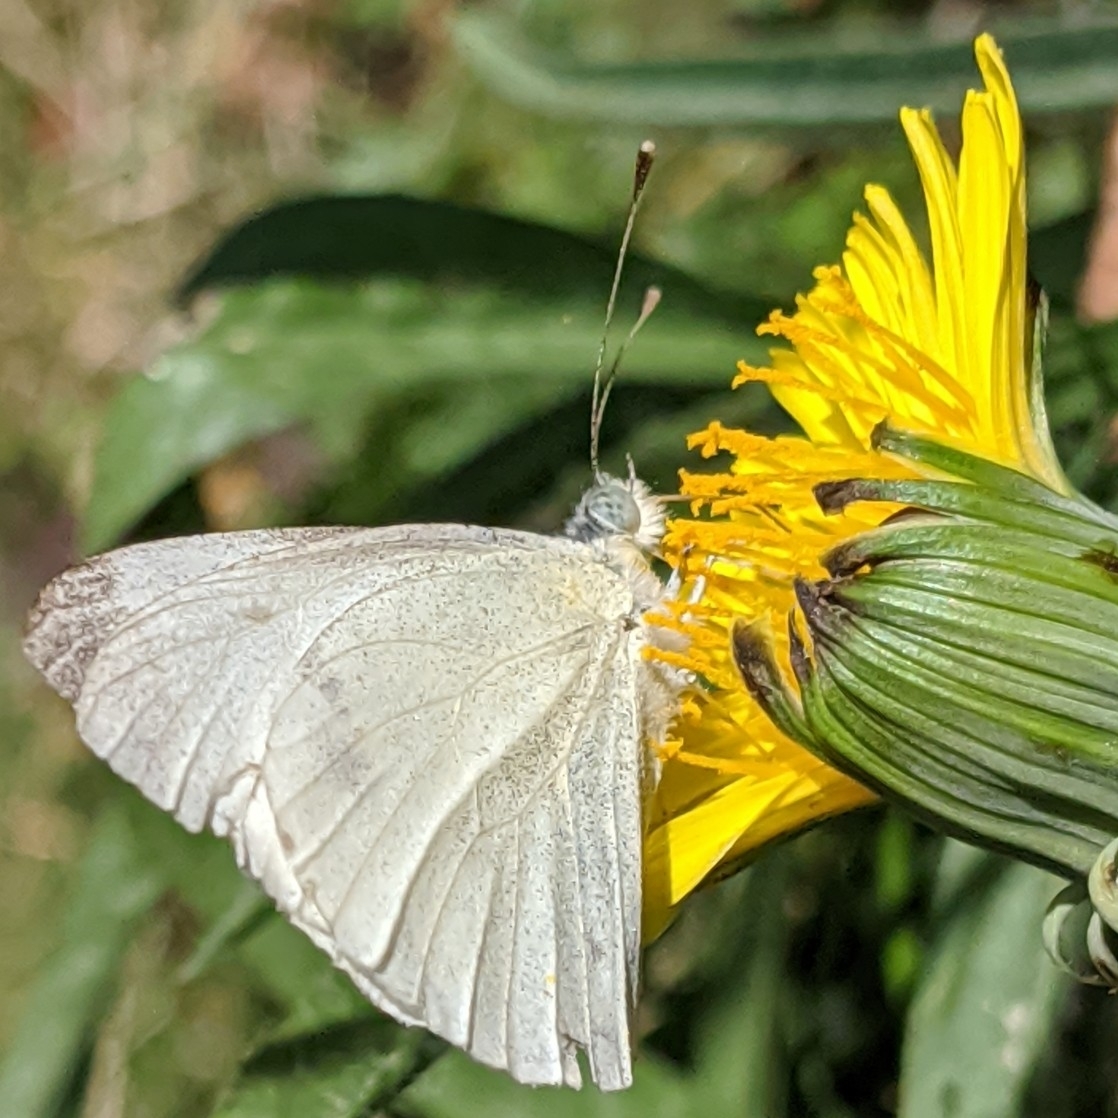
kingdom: Animalia
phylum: Arthropoda
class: Insecta
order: Lepidoptera
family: Pieridae
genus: Pieris
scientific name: Pieris rapae
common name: Small white
